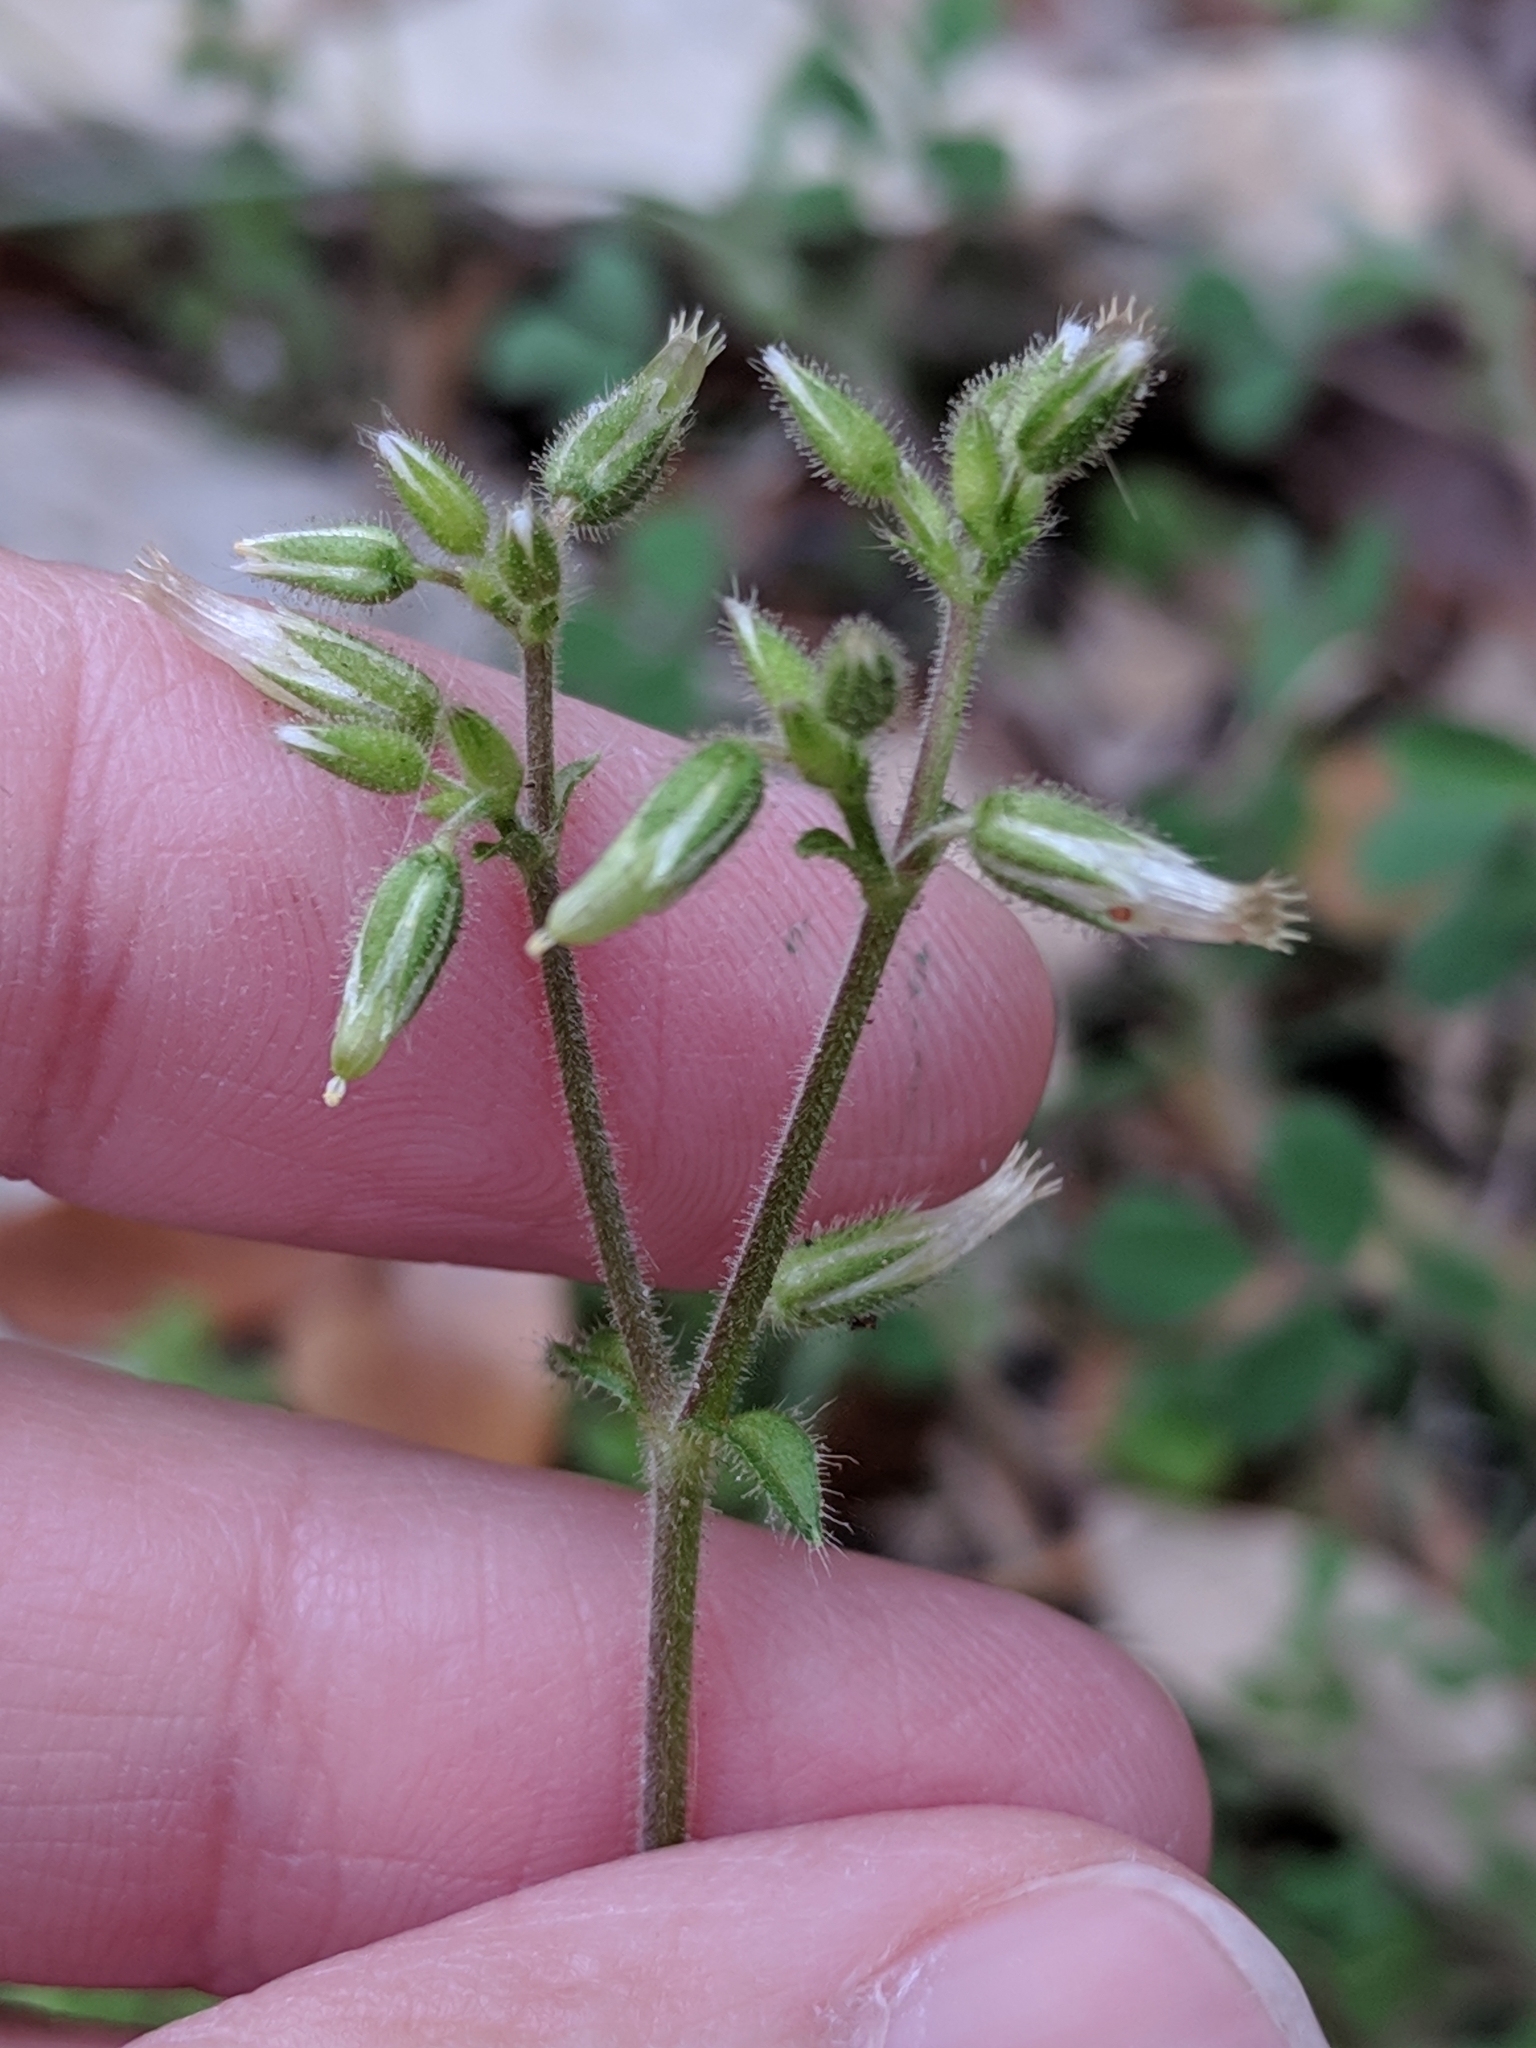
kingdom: Plantae
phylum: Tracheophyta
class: Magnoliopsida
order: Caryophyllales
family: Caryophyllaceae
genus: Cerastium
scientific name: Cerastium glomeratum
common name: Sticky chickweed
